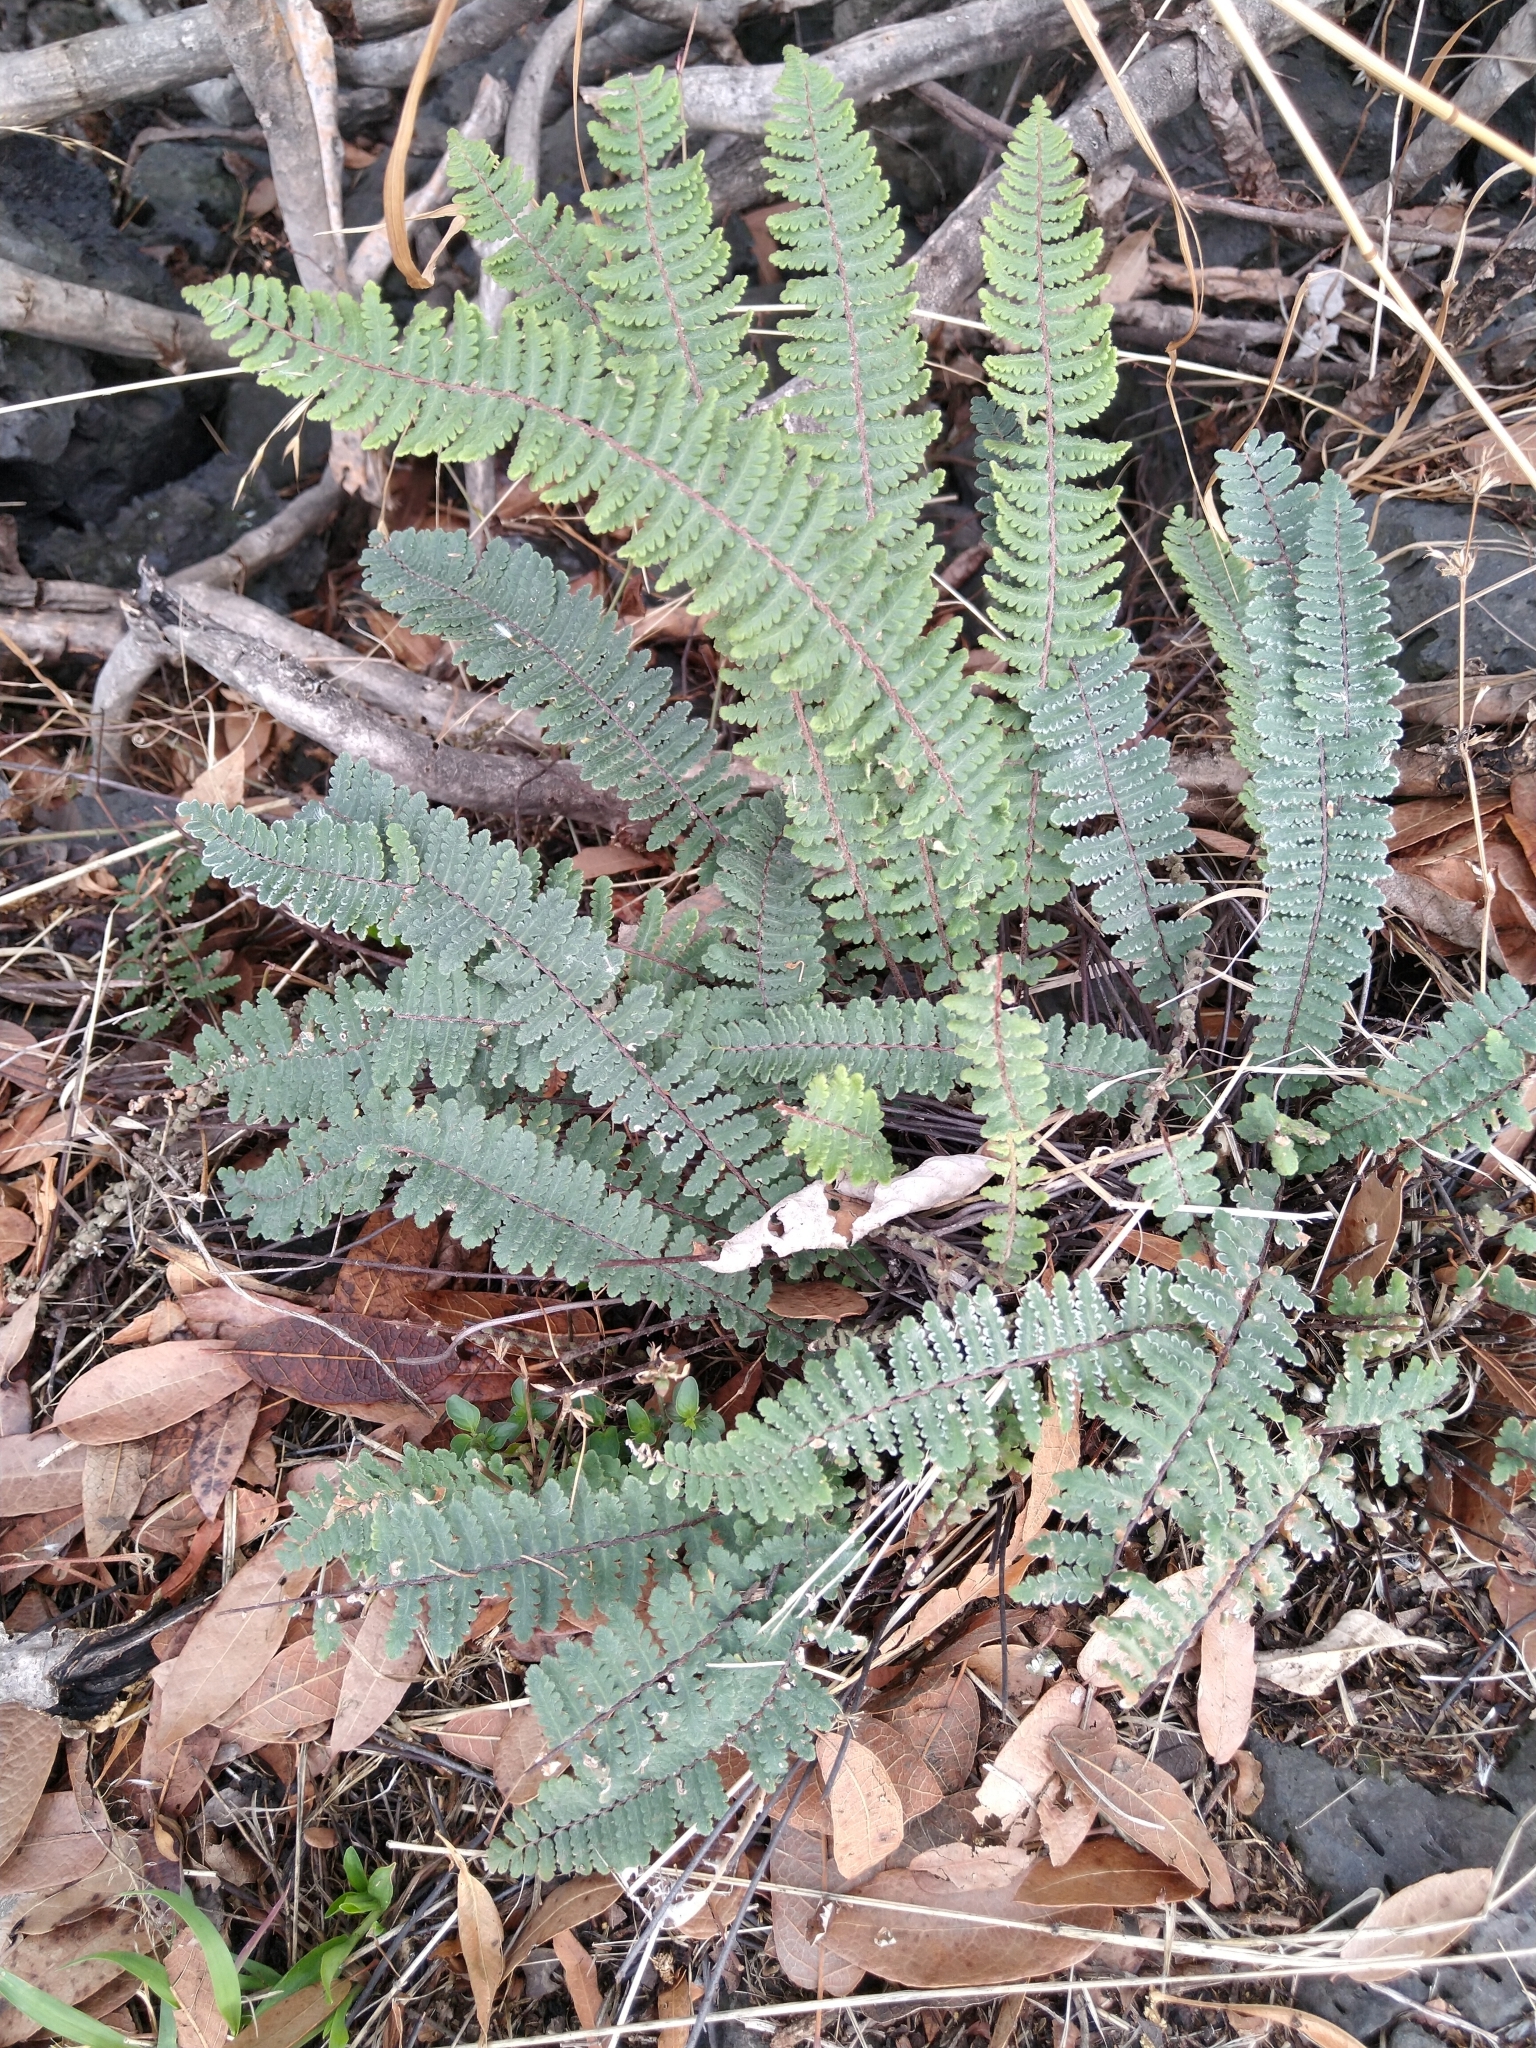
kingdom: Plantae
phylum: Tracheophyta
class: Polypodiopsida
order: Polypodiales
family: Pteridaceae
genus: Myriopteris
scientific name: Myriopteris aurea
